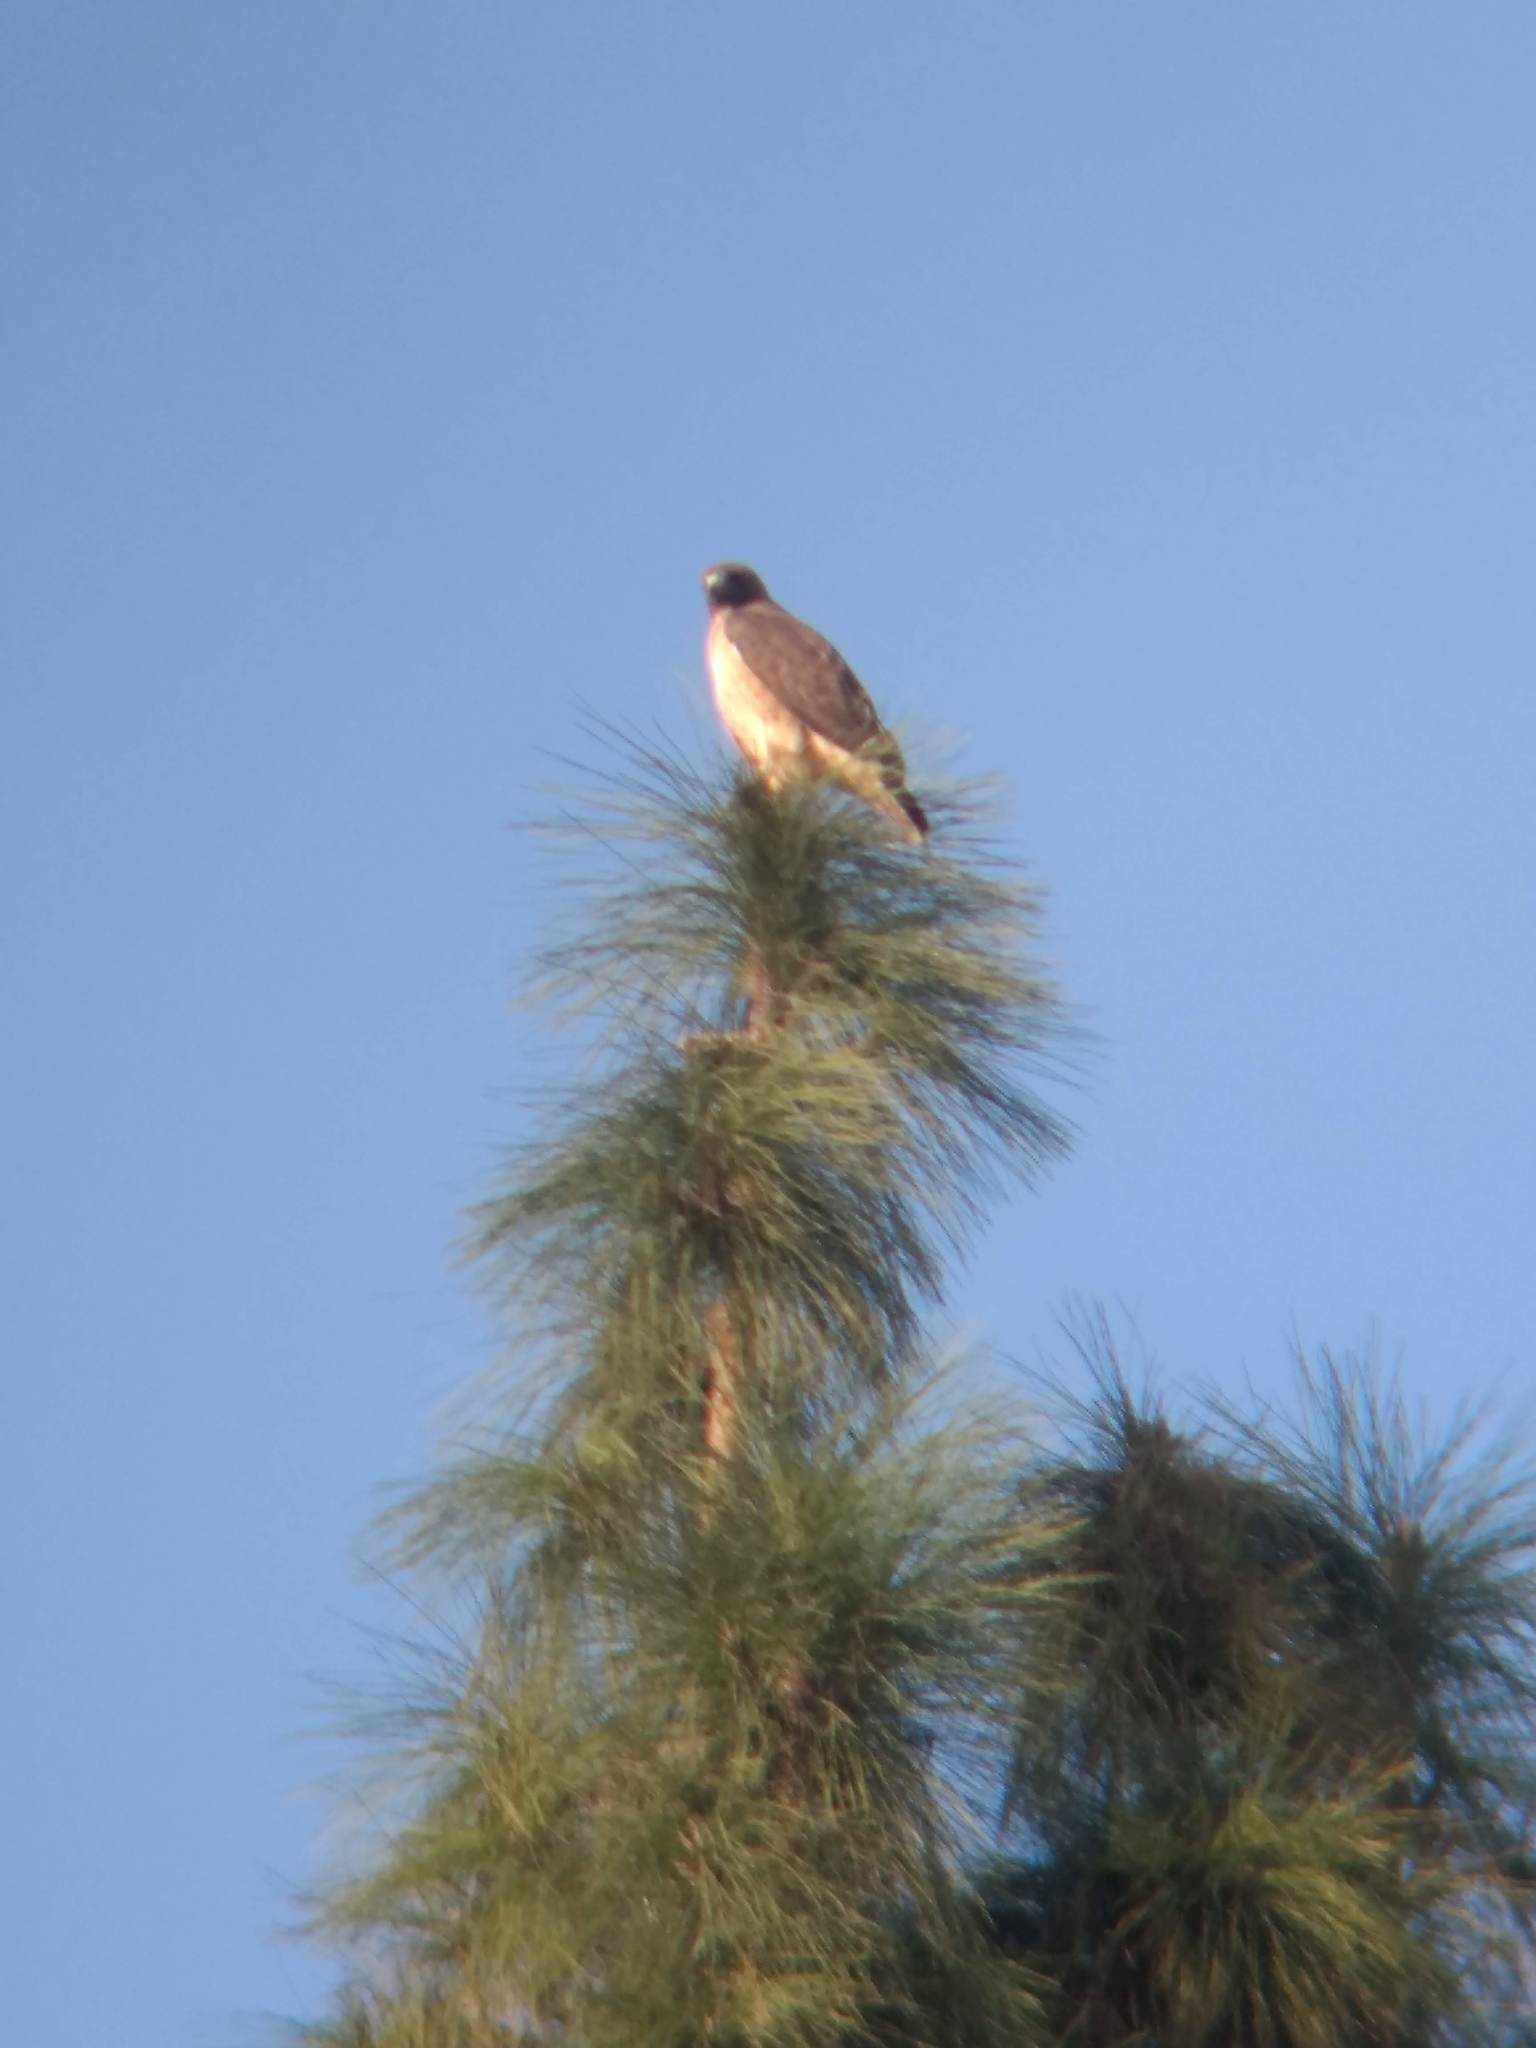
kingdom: Animalia
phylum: Chordata
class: Aves
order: Accipitriformes
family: Accipitridae
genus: Buteo
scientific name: Buteo jamaicensis
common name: Red-tailed hawk
